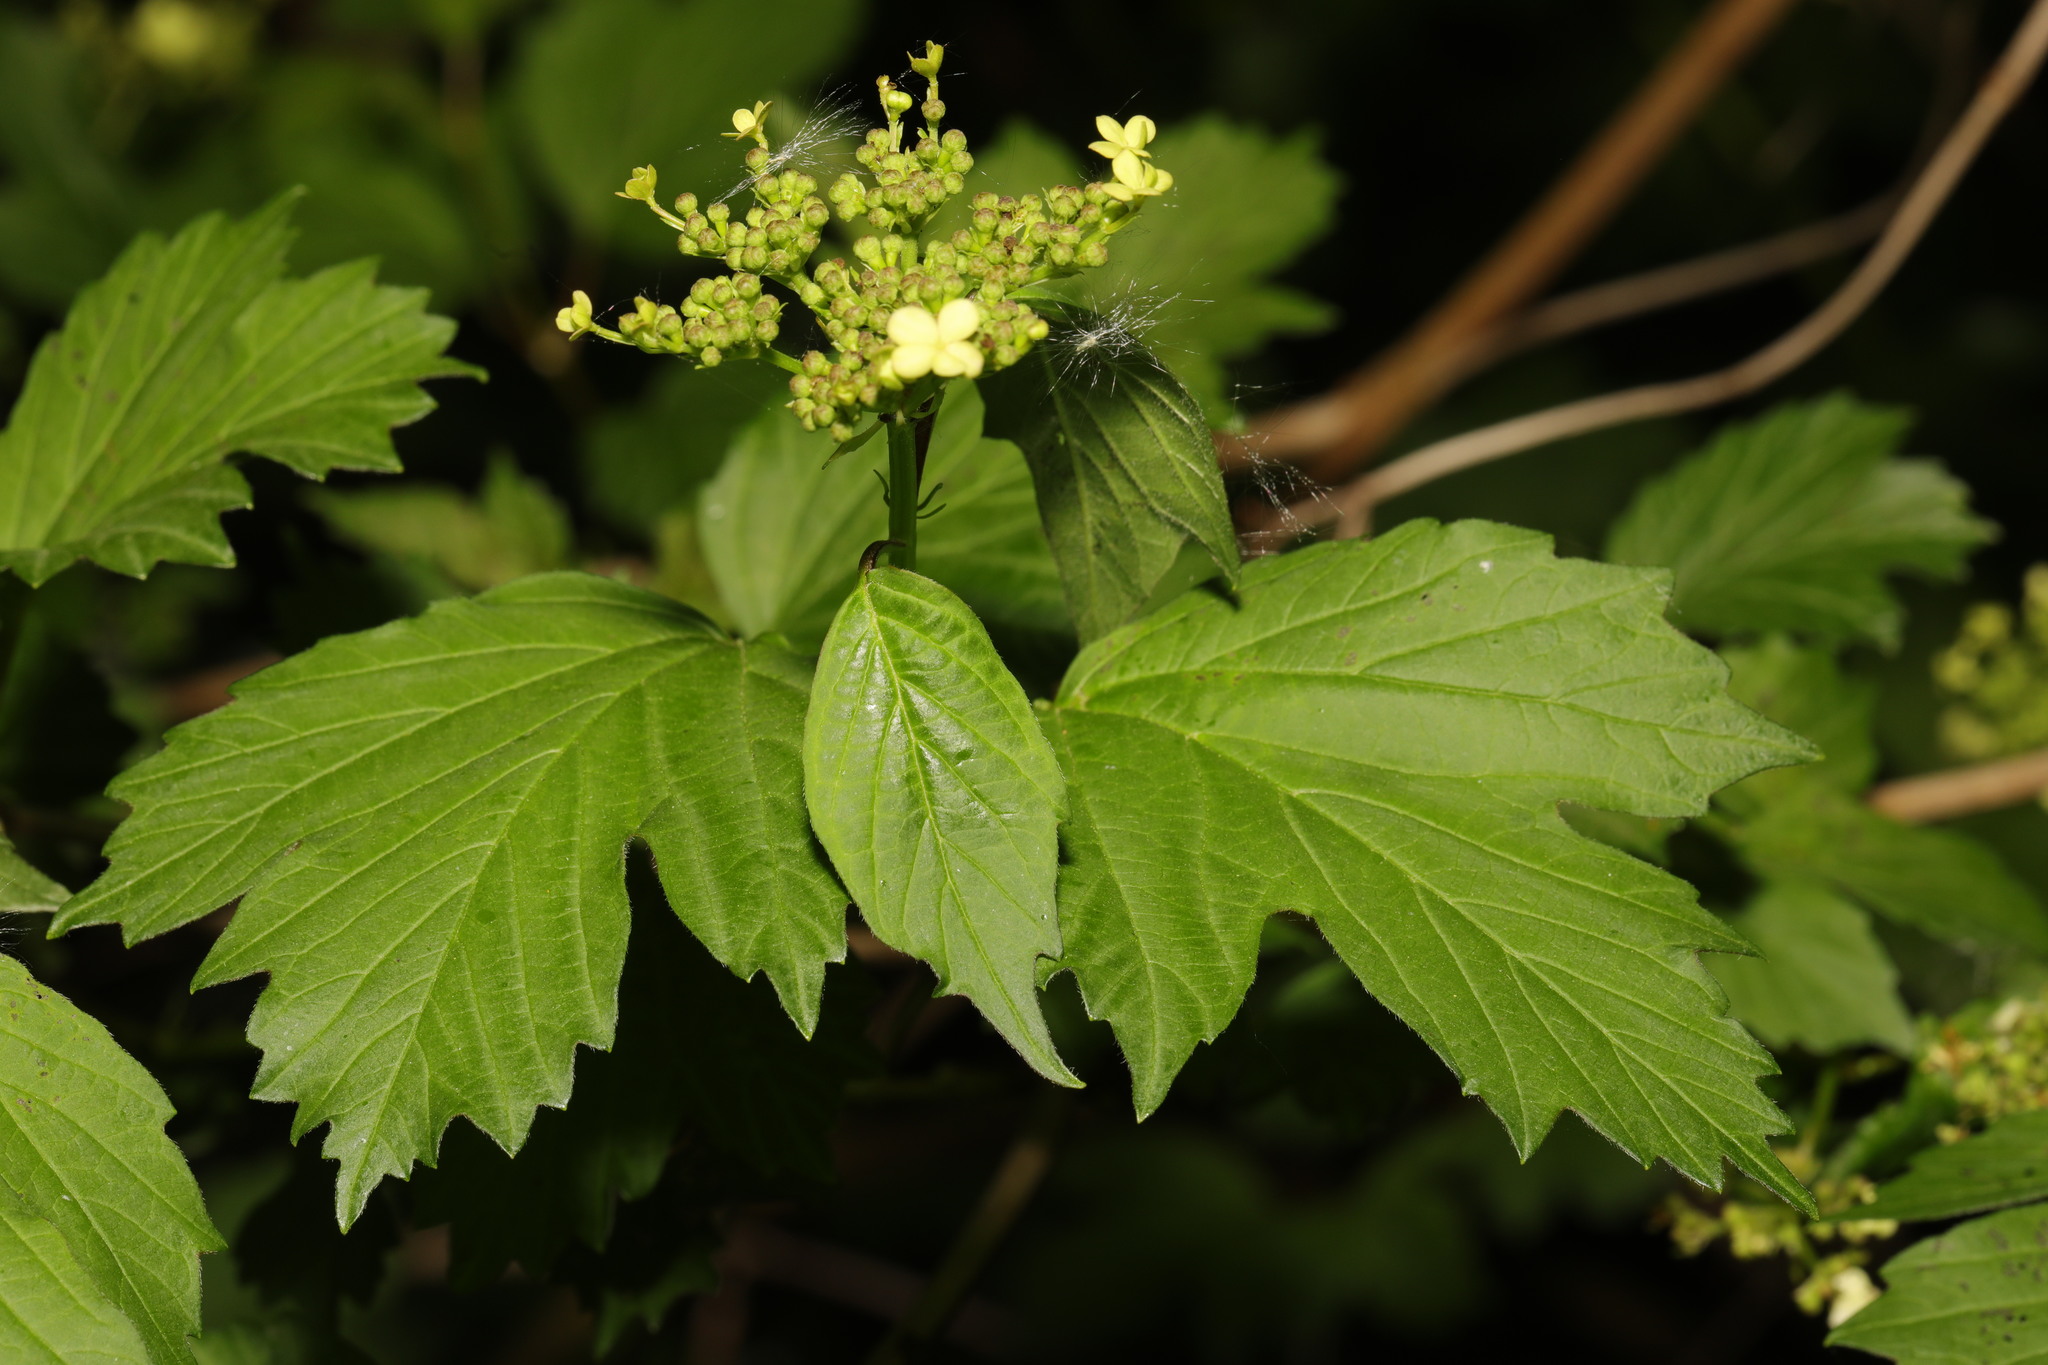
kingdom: Plantae
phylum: Tracheophyta
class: Magnoliopsida
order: Dipsacales
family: Viburnaceae
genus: Viburnum
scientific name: Viburnum opulus
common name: Guelder-rose
